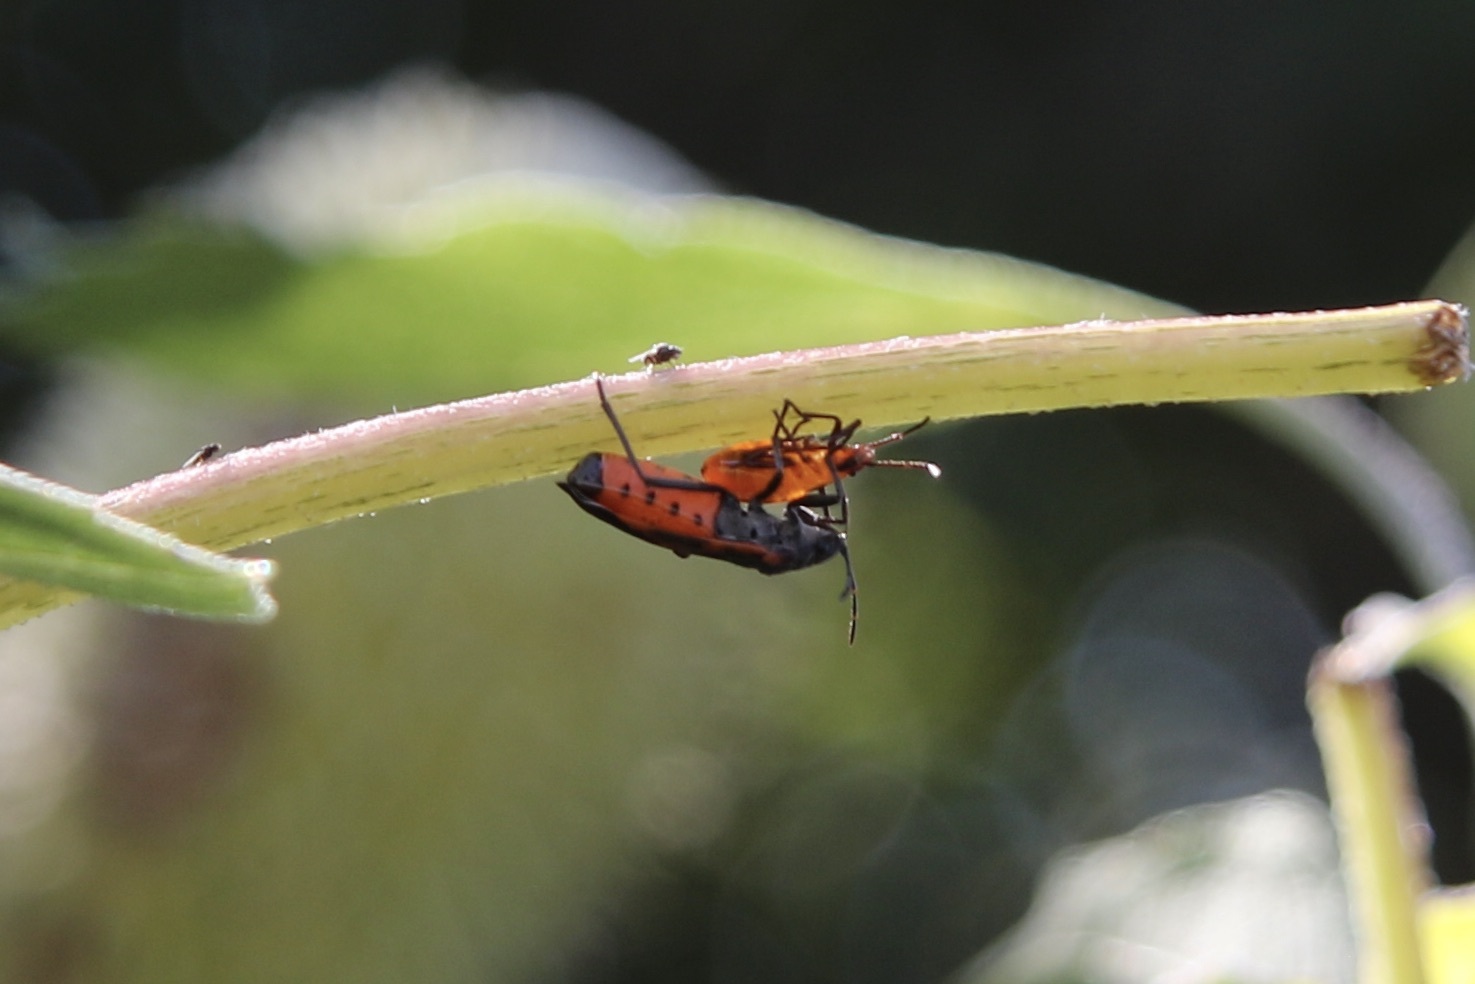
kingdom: Animalia
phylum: Arthropoda
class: Insecta
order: Hemiptera
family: Lygaeidae
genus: Lygaeus
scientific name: Lygaeus kalmii
